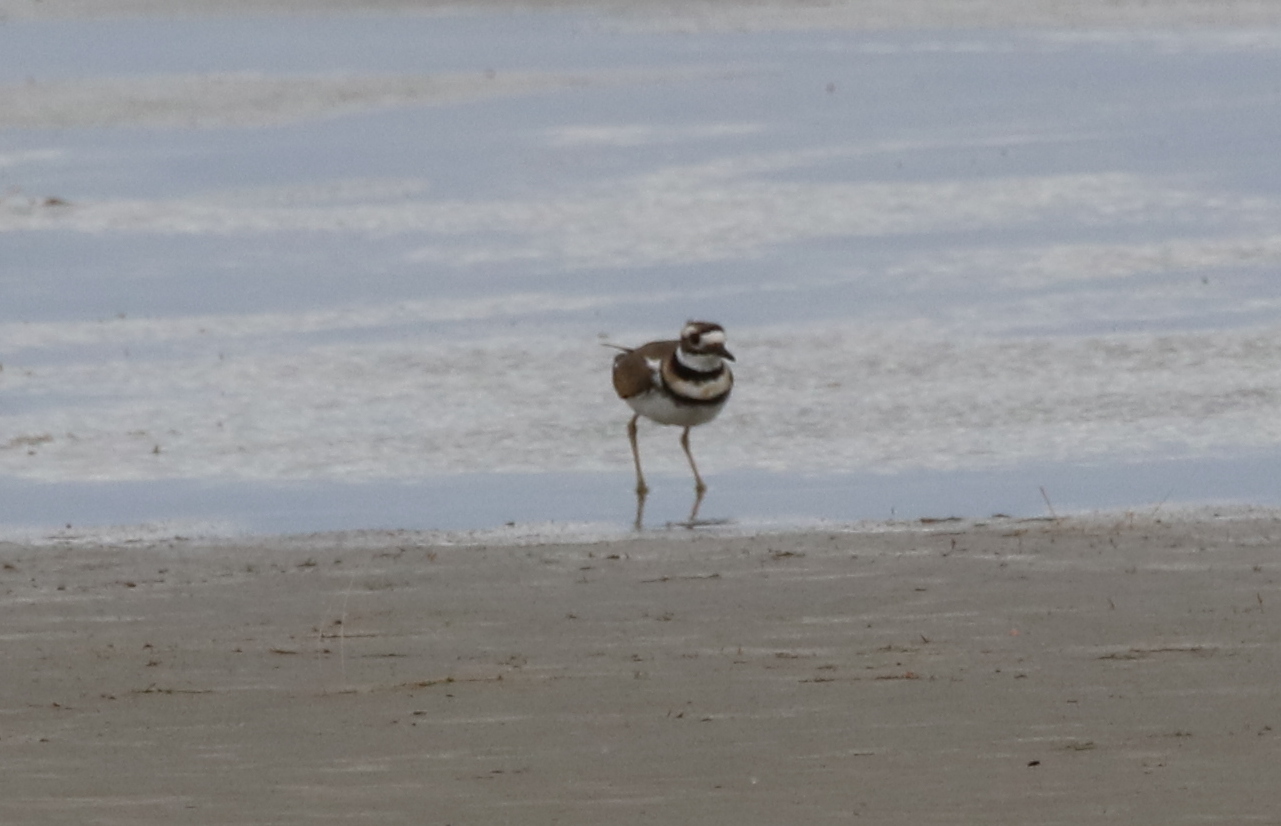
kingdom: Animalia
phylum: Chordata
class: Aves
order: Charadriiformes
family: Charadriidae
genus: Charadrius
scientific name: Charadrius vociferus
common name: Killdeer
